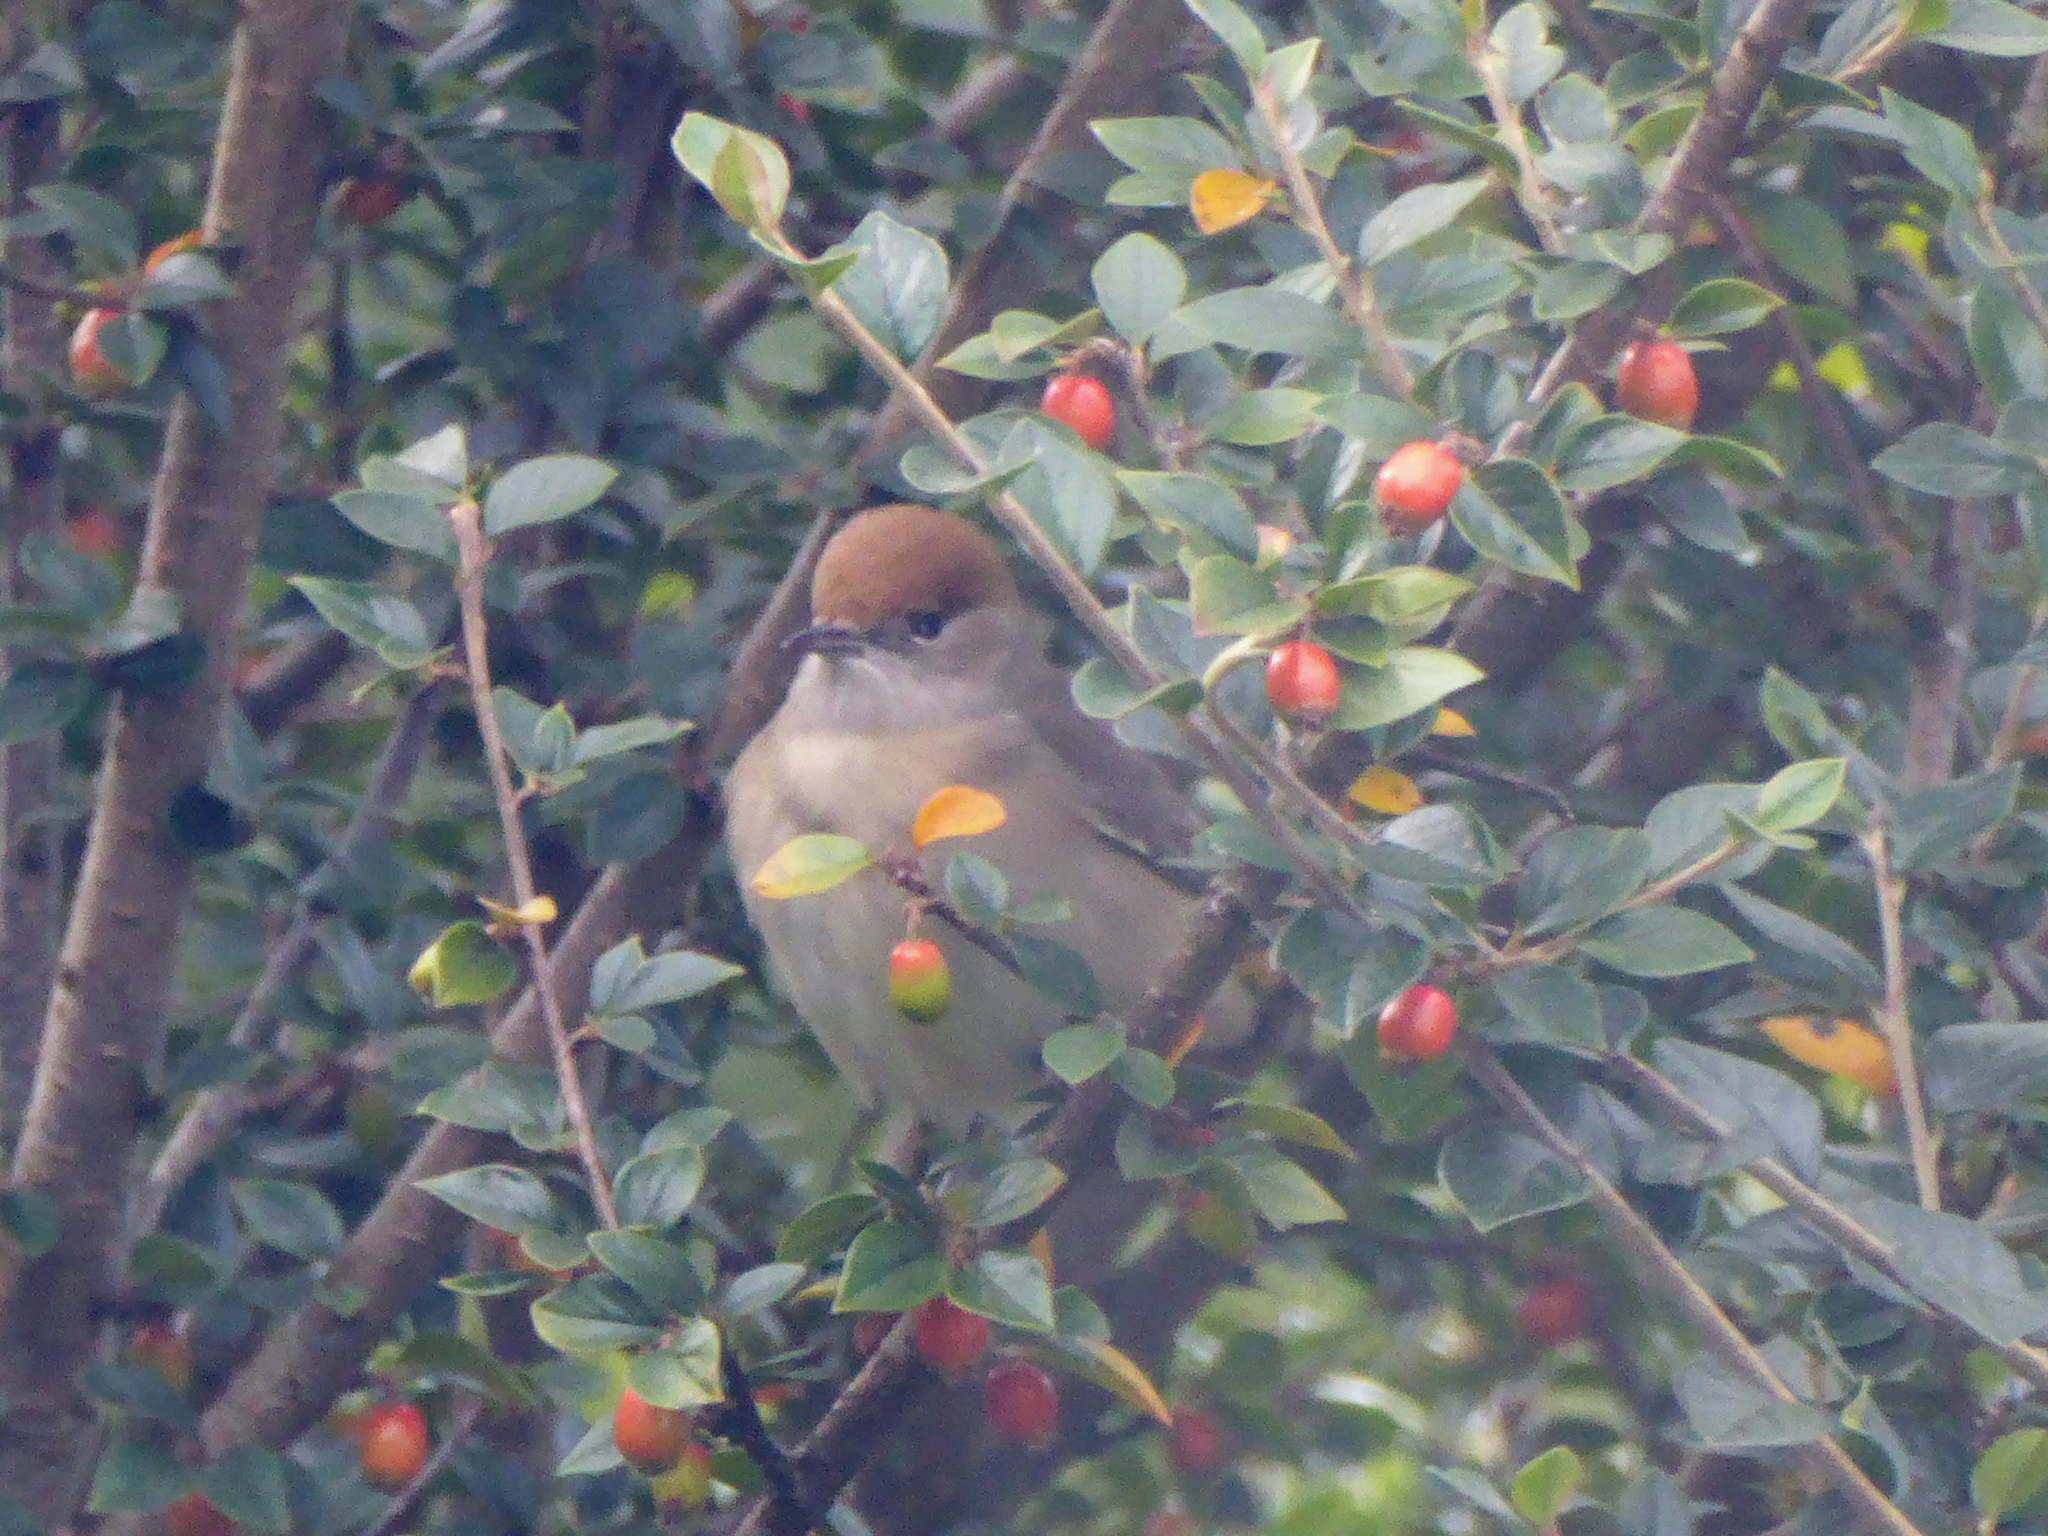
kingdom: Animalia
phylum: Chordata
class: Aves
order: Passeriformes
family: Sylviidae
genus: Sylvia
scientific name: Sylvia atricapilla
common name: Eurasian blackcap
